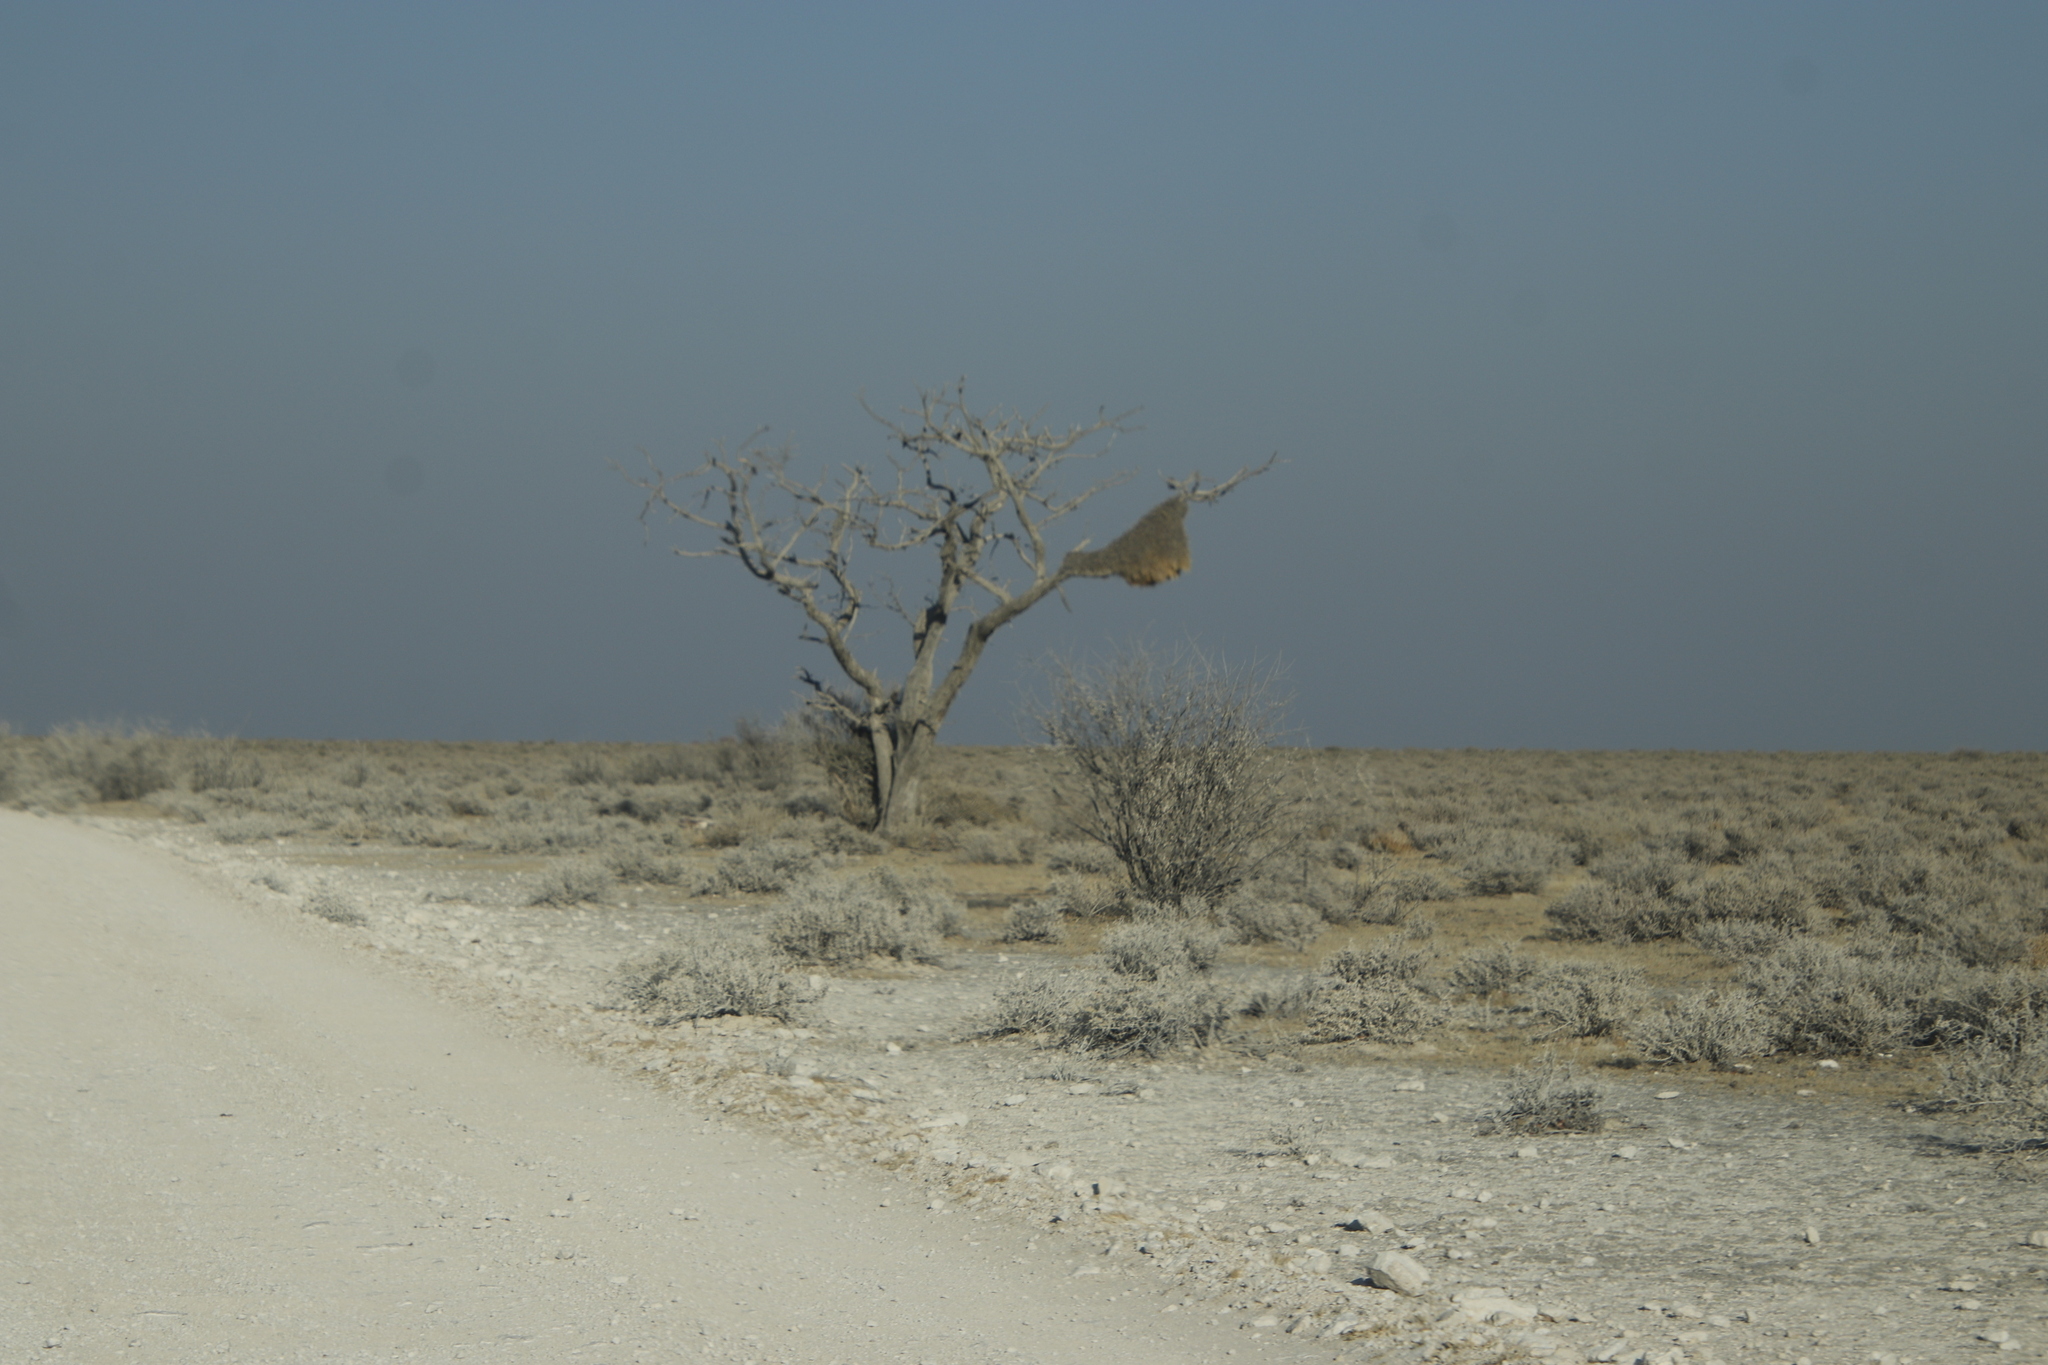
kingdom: Animalia
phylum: Chordata
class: Aves
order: Passeriformes
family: Passeridae
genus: Philetairus
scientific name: Philetairus socius
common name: Sociable weaver
